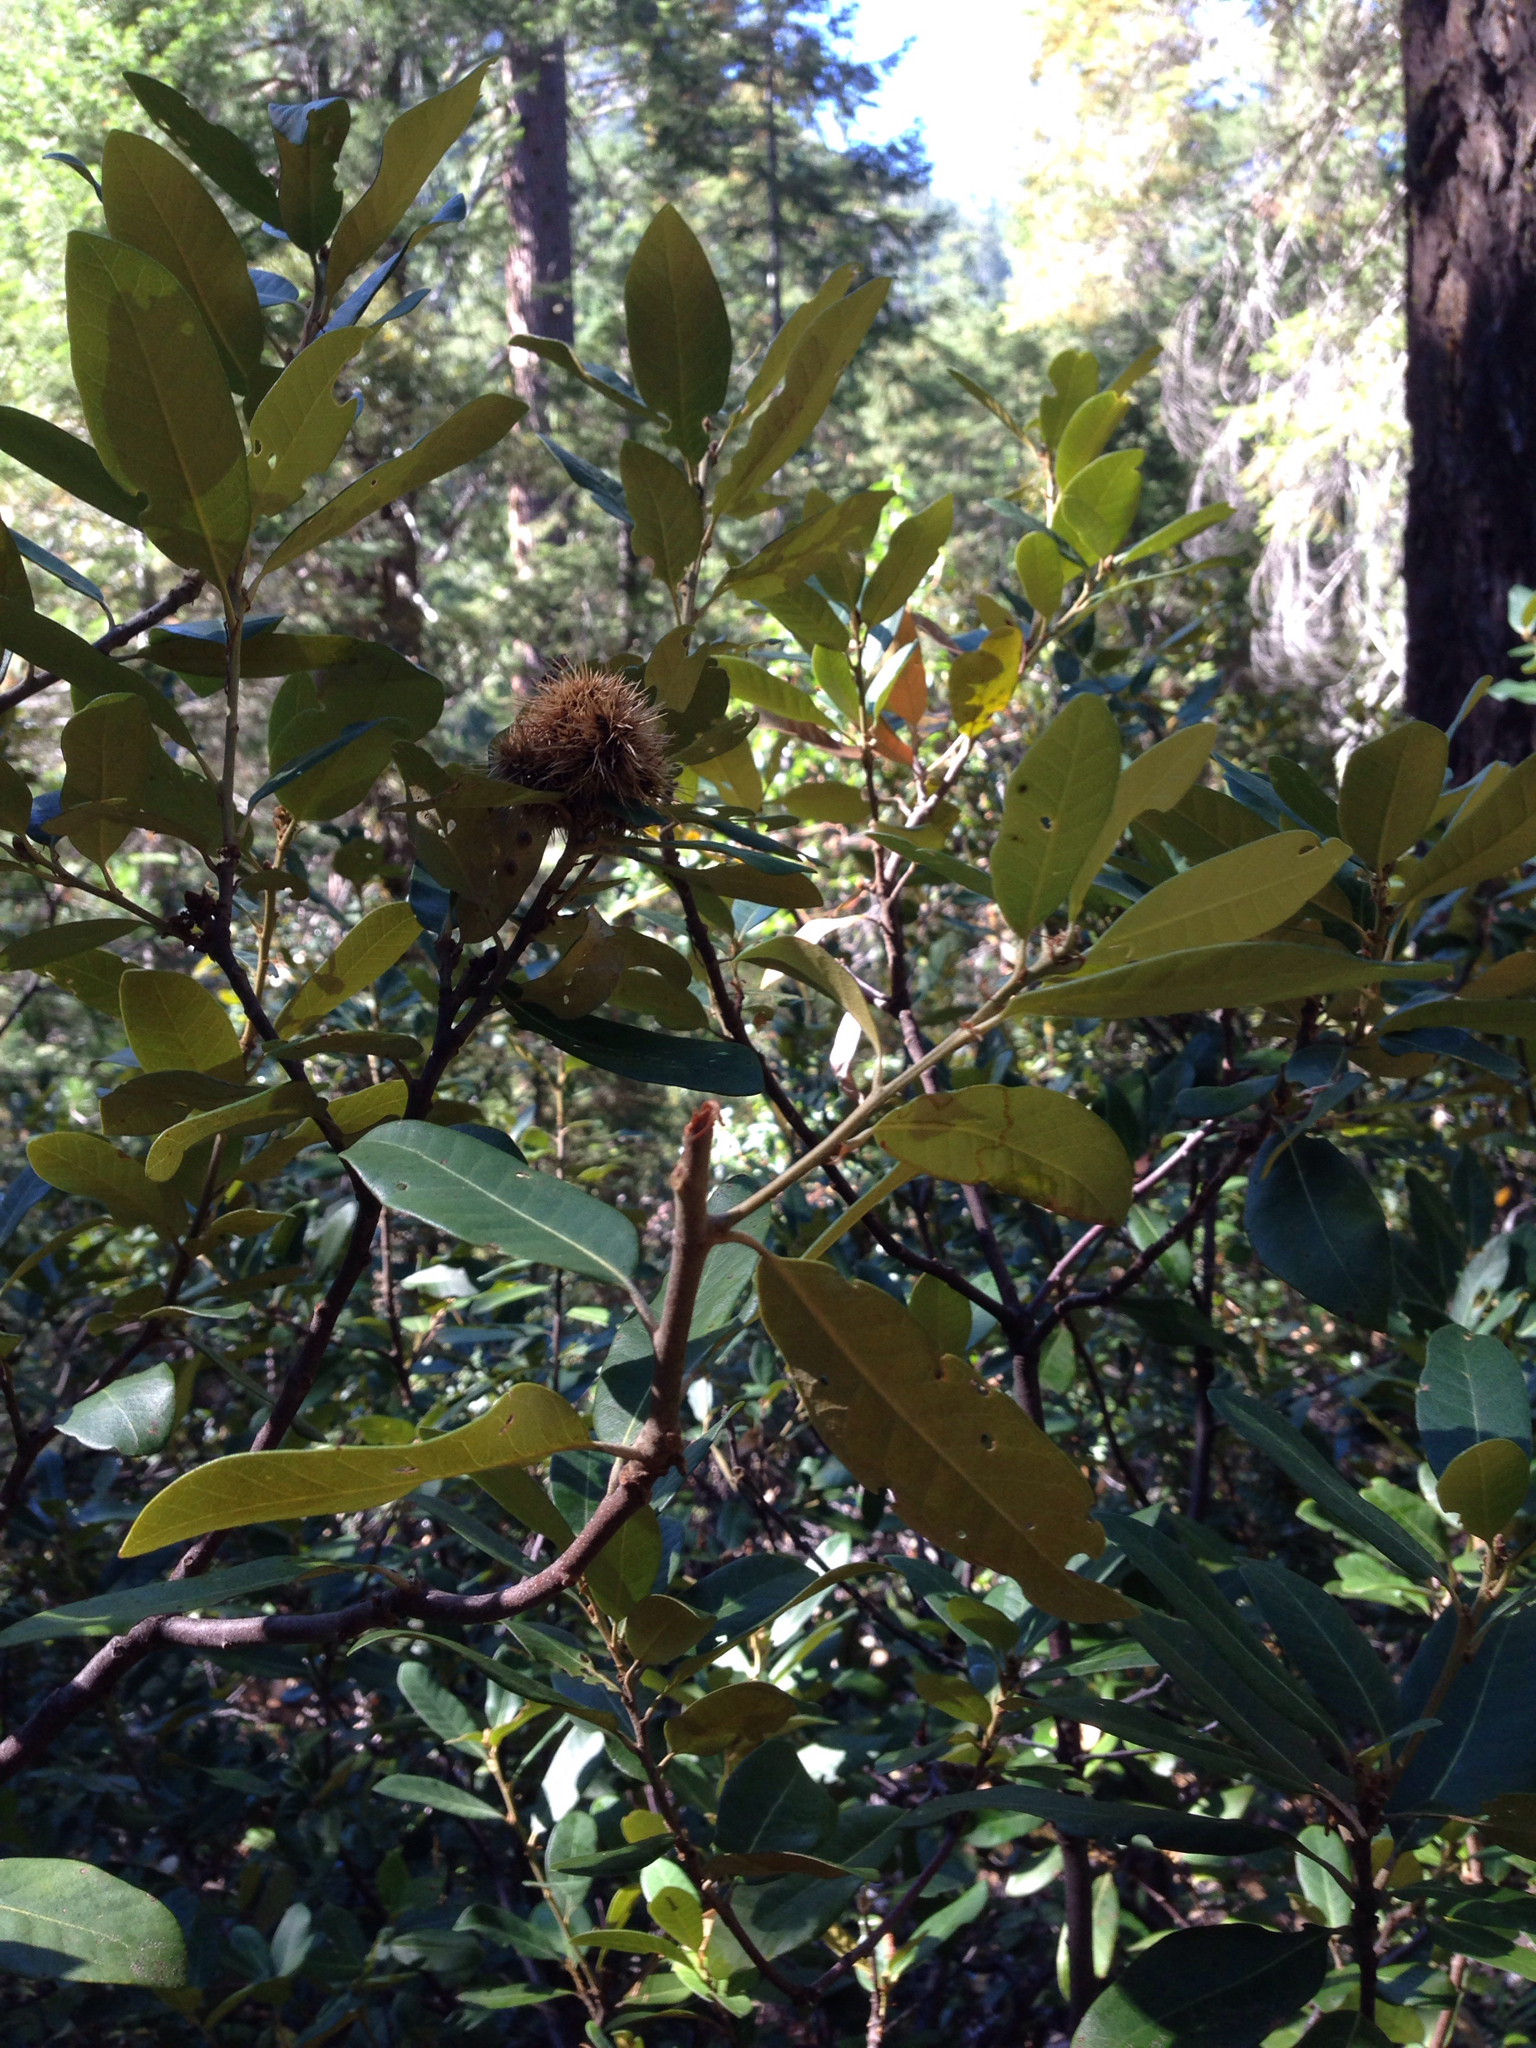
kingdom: Plantae
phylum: Tracheophyta
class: Magnoliopsida
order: Fagales
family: Fagaceae
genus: Chrysolepis
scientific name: Chrysolepis sempervirens
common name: Bush chinquapin
